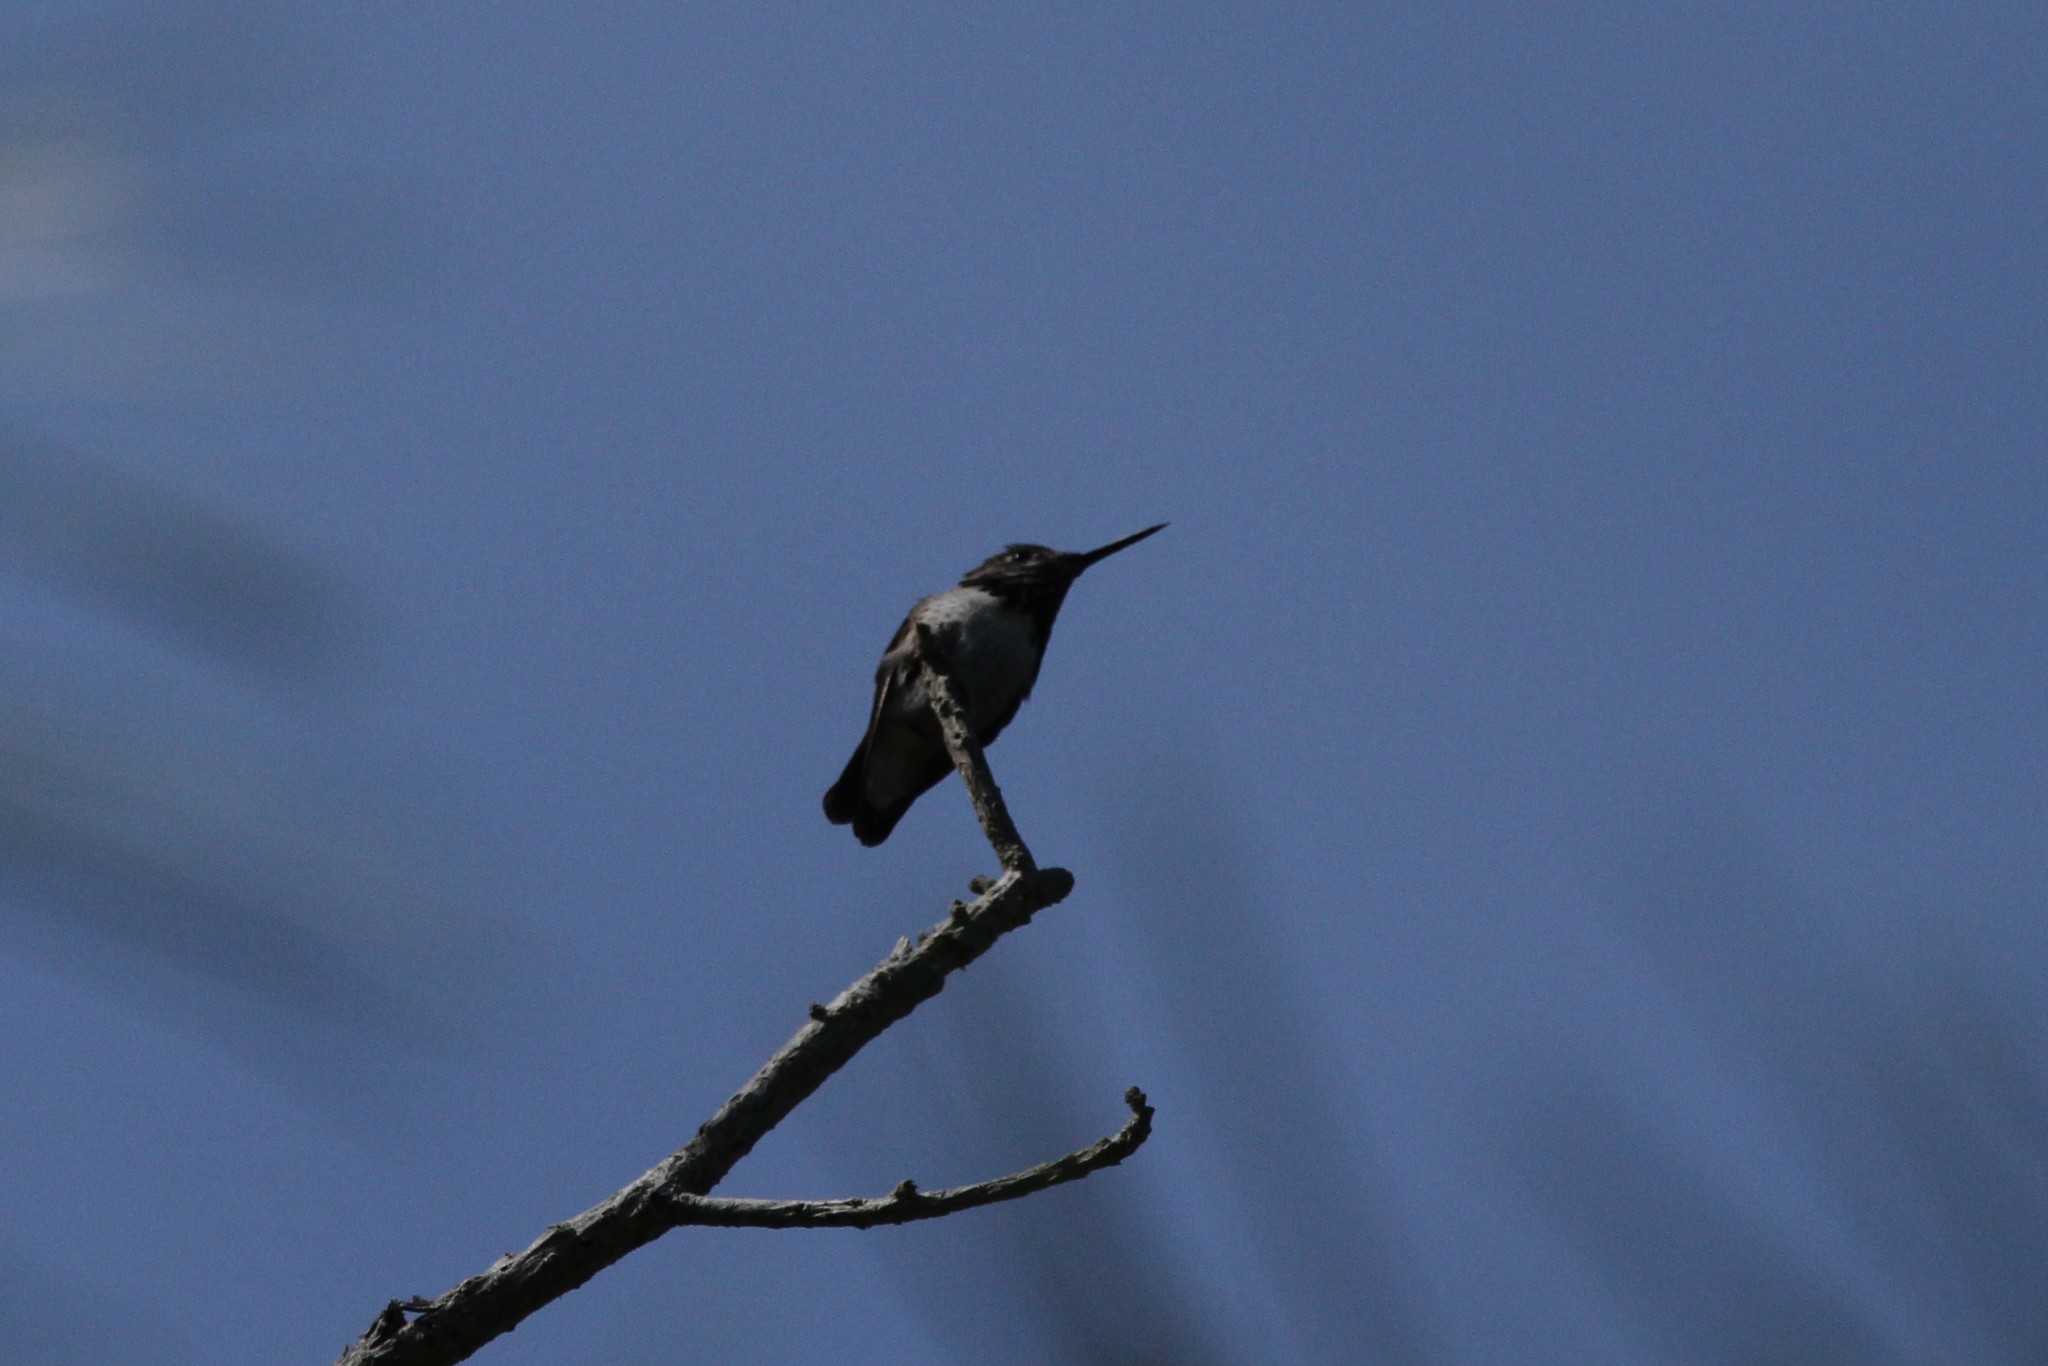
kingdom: Animalia
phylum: Chordata
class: Aves
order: Apodiformes
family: Trochilidae
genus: Selasphorus
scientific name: Selasphorus calliope
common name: Calliope hummingbird
